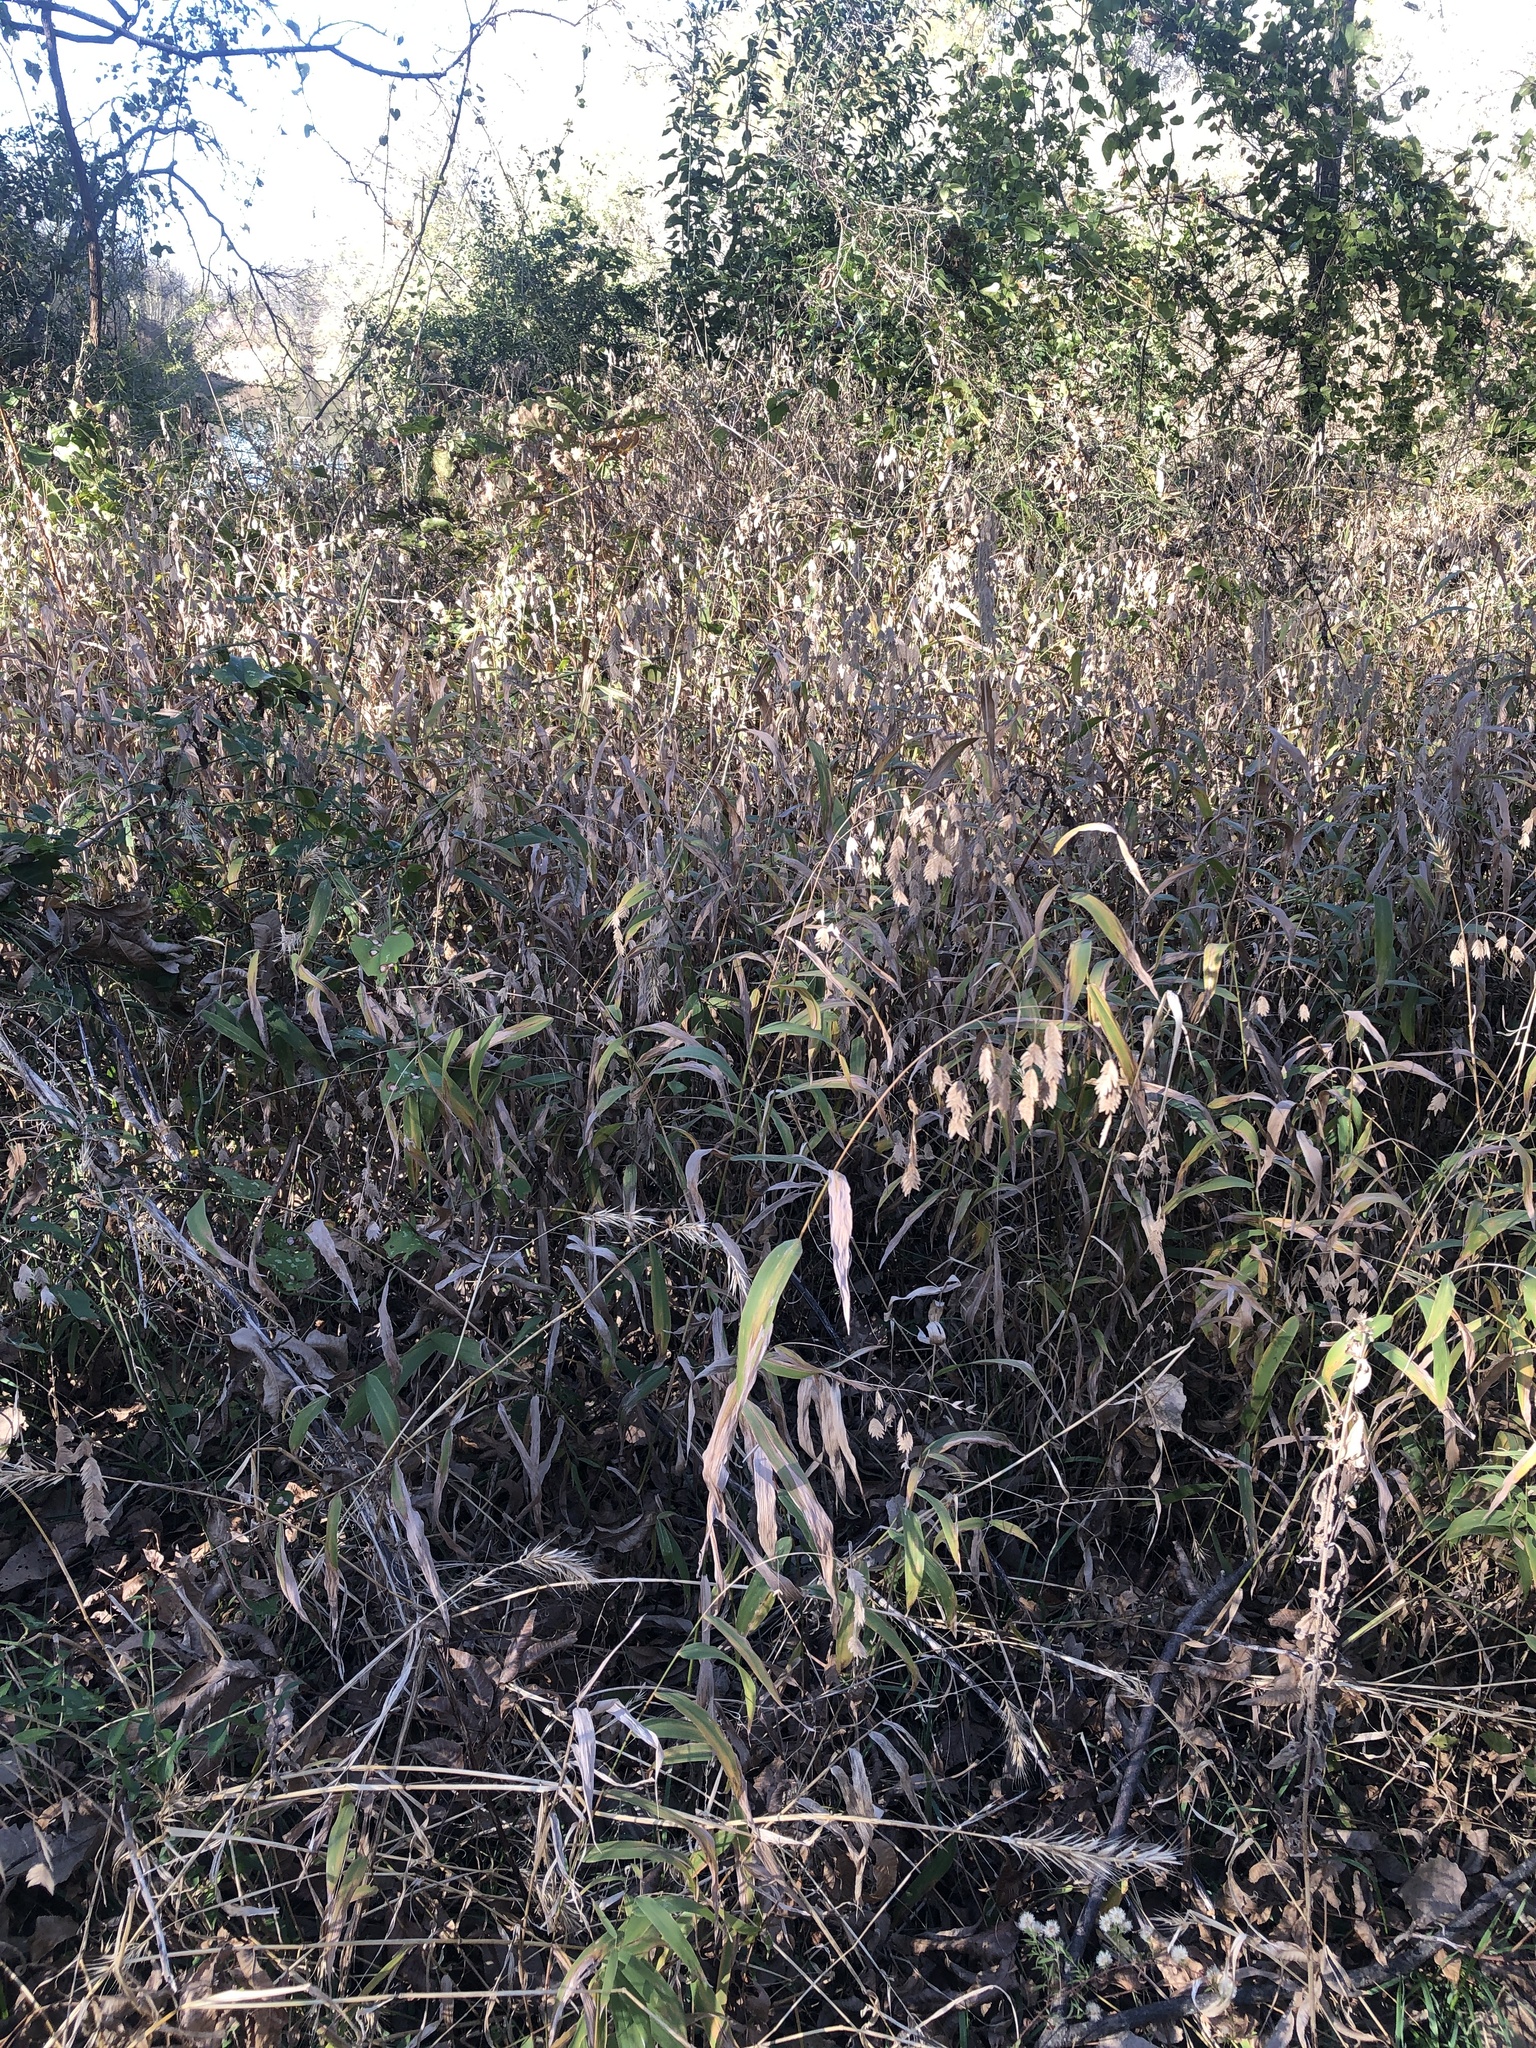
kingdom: Plantae
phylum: Tracheophyta
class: Liliopsida
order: Poales
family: Poaceae
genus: Chasmanthium
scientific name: Chasmanthium latifolium
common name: Broad-leaved chasmanthium
